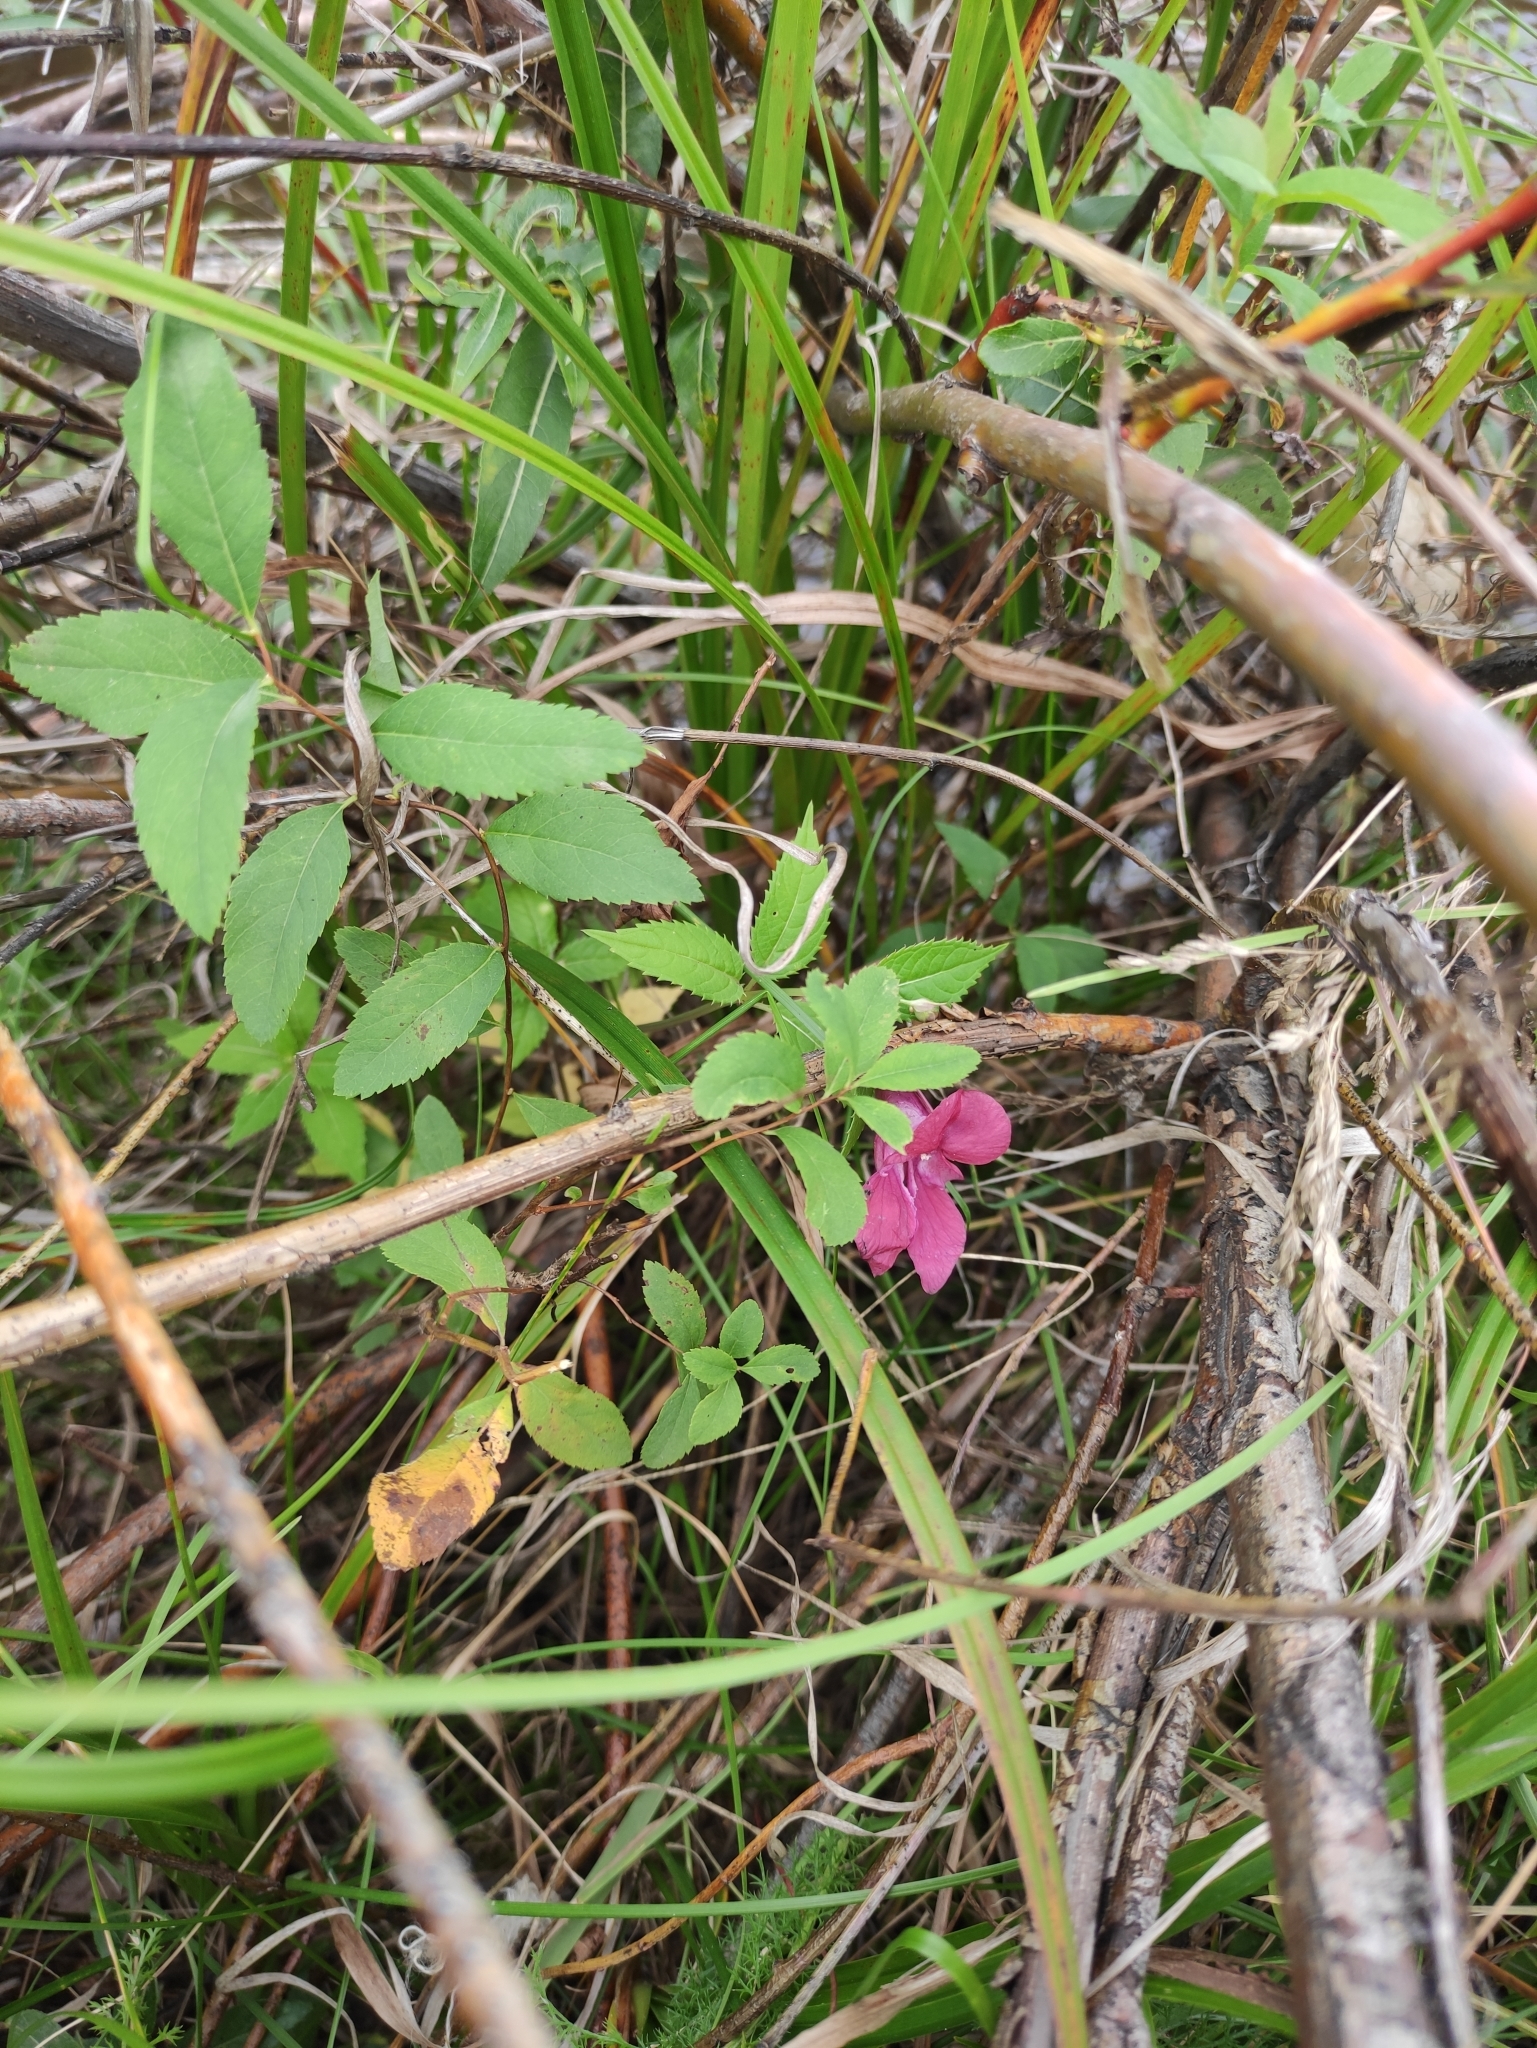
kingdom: Plantae
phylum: Tracheophyta
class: Magnoliopsida
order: Ericales
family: Balsaminaceae
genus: Impatiens
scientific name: Impatiens glandulifera
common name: Himalayan balsam
